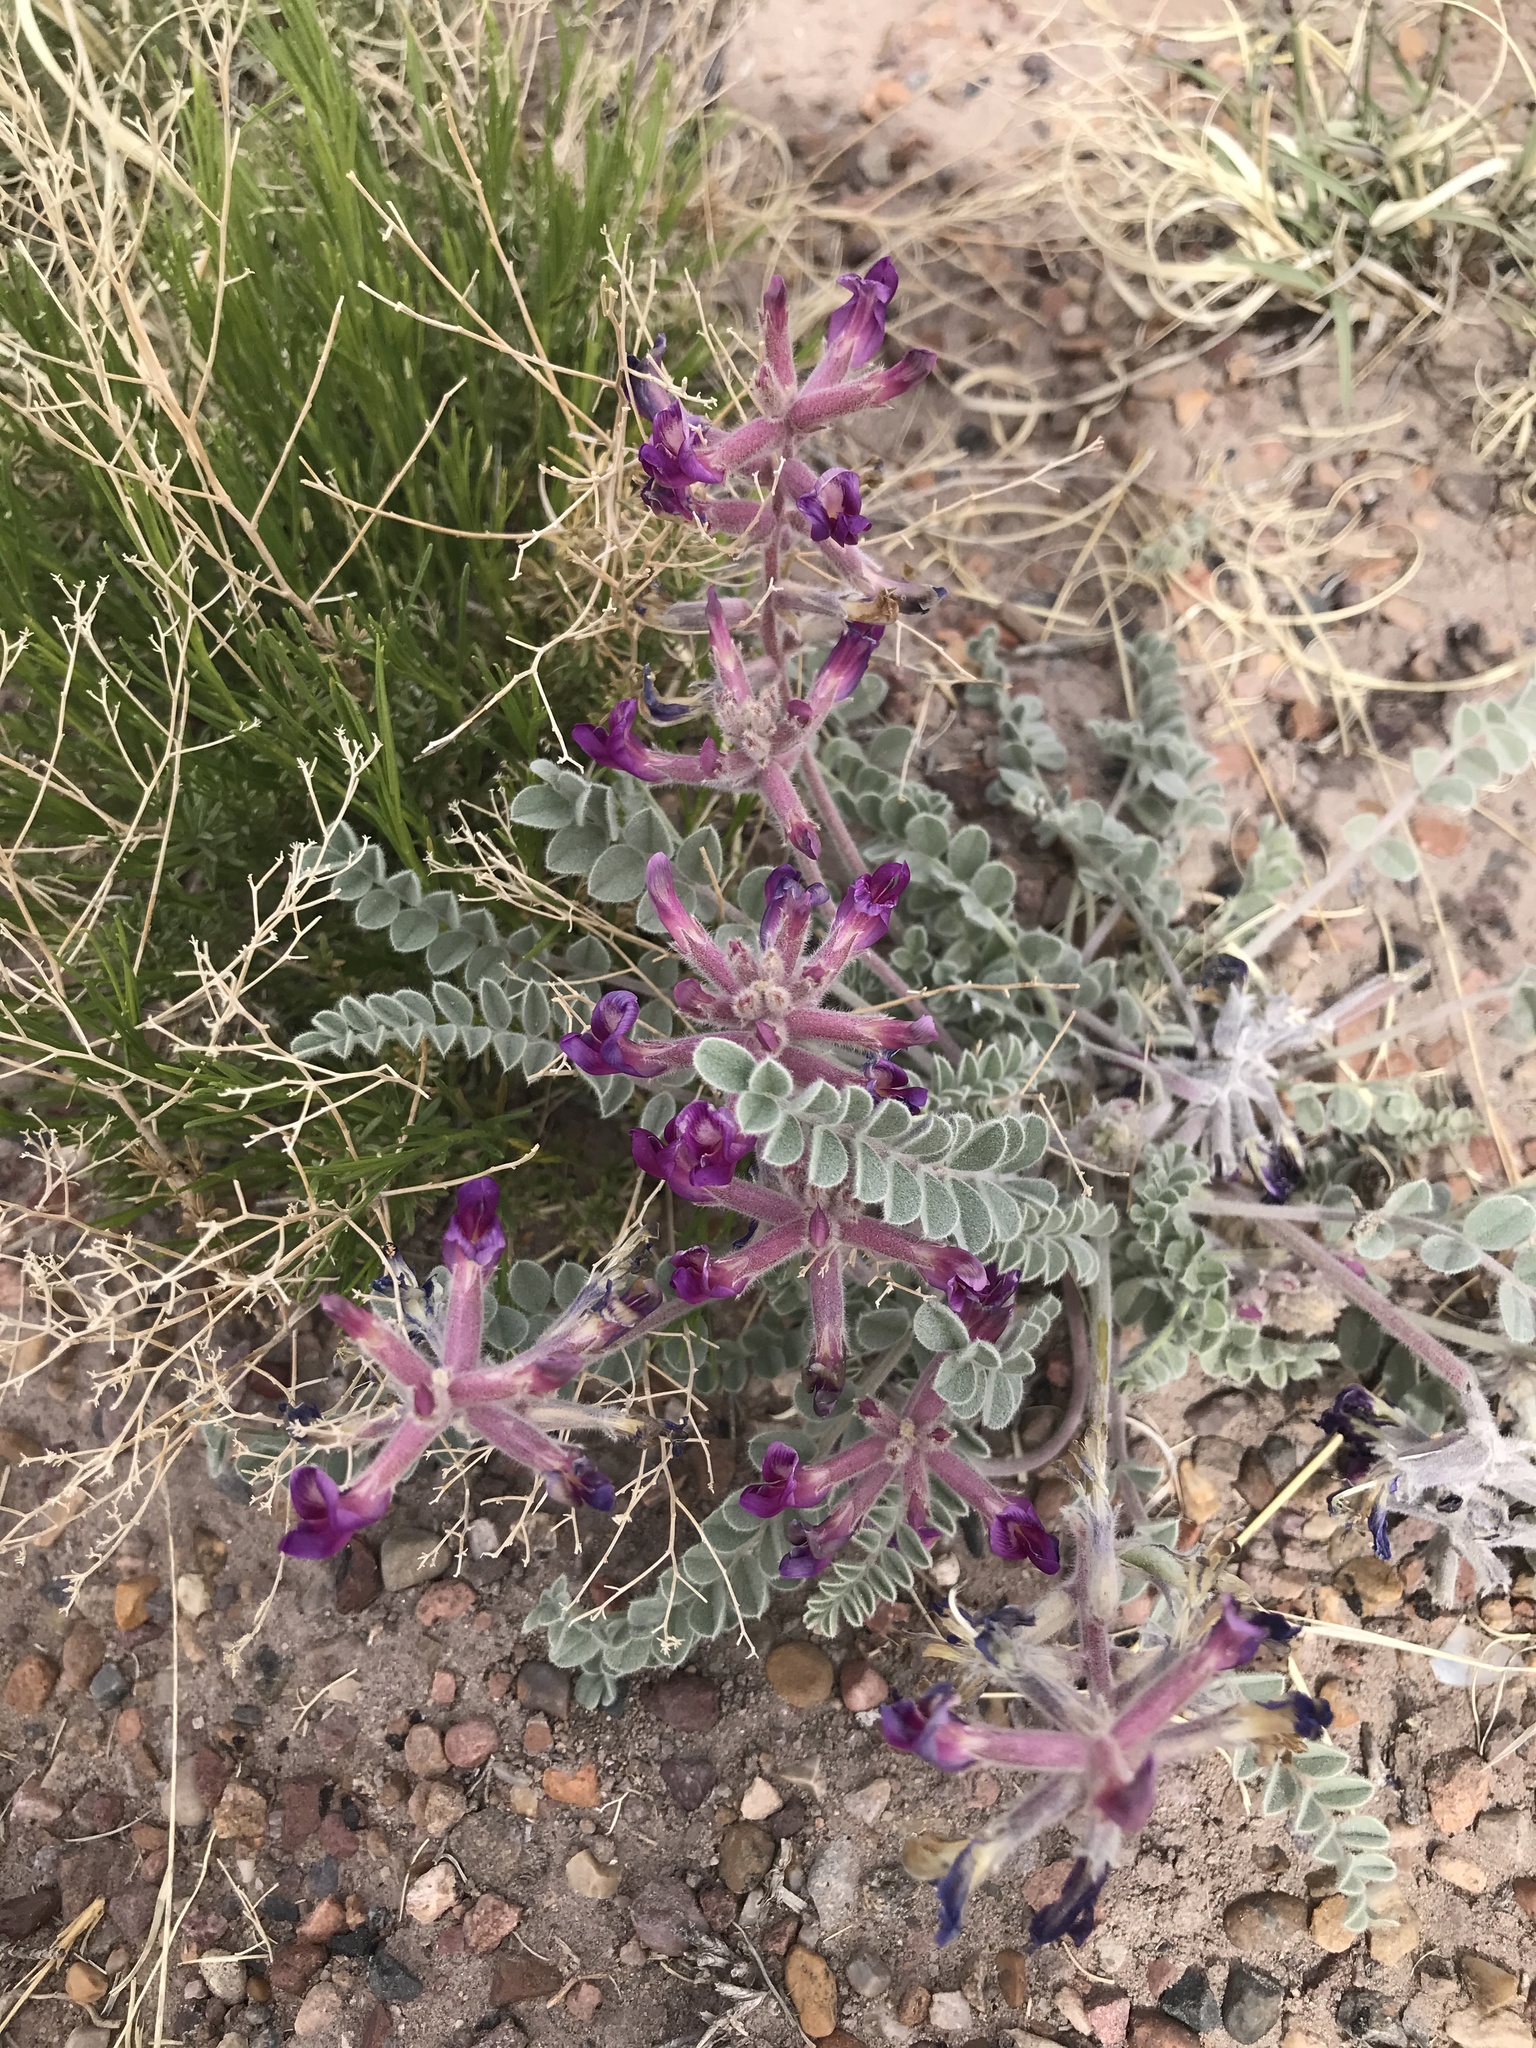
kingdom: Plantae
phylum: Tracheophyta
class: Magnoliopsida
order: Fabales
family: Fabaceae
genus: Astragalus
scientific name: Astragalus mollissimus
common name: Woolly locoweed
